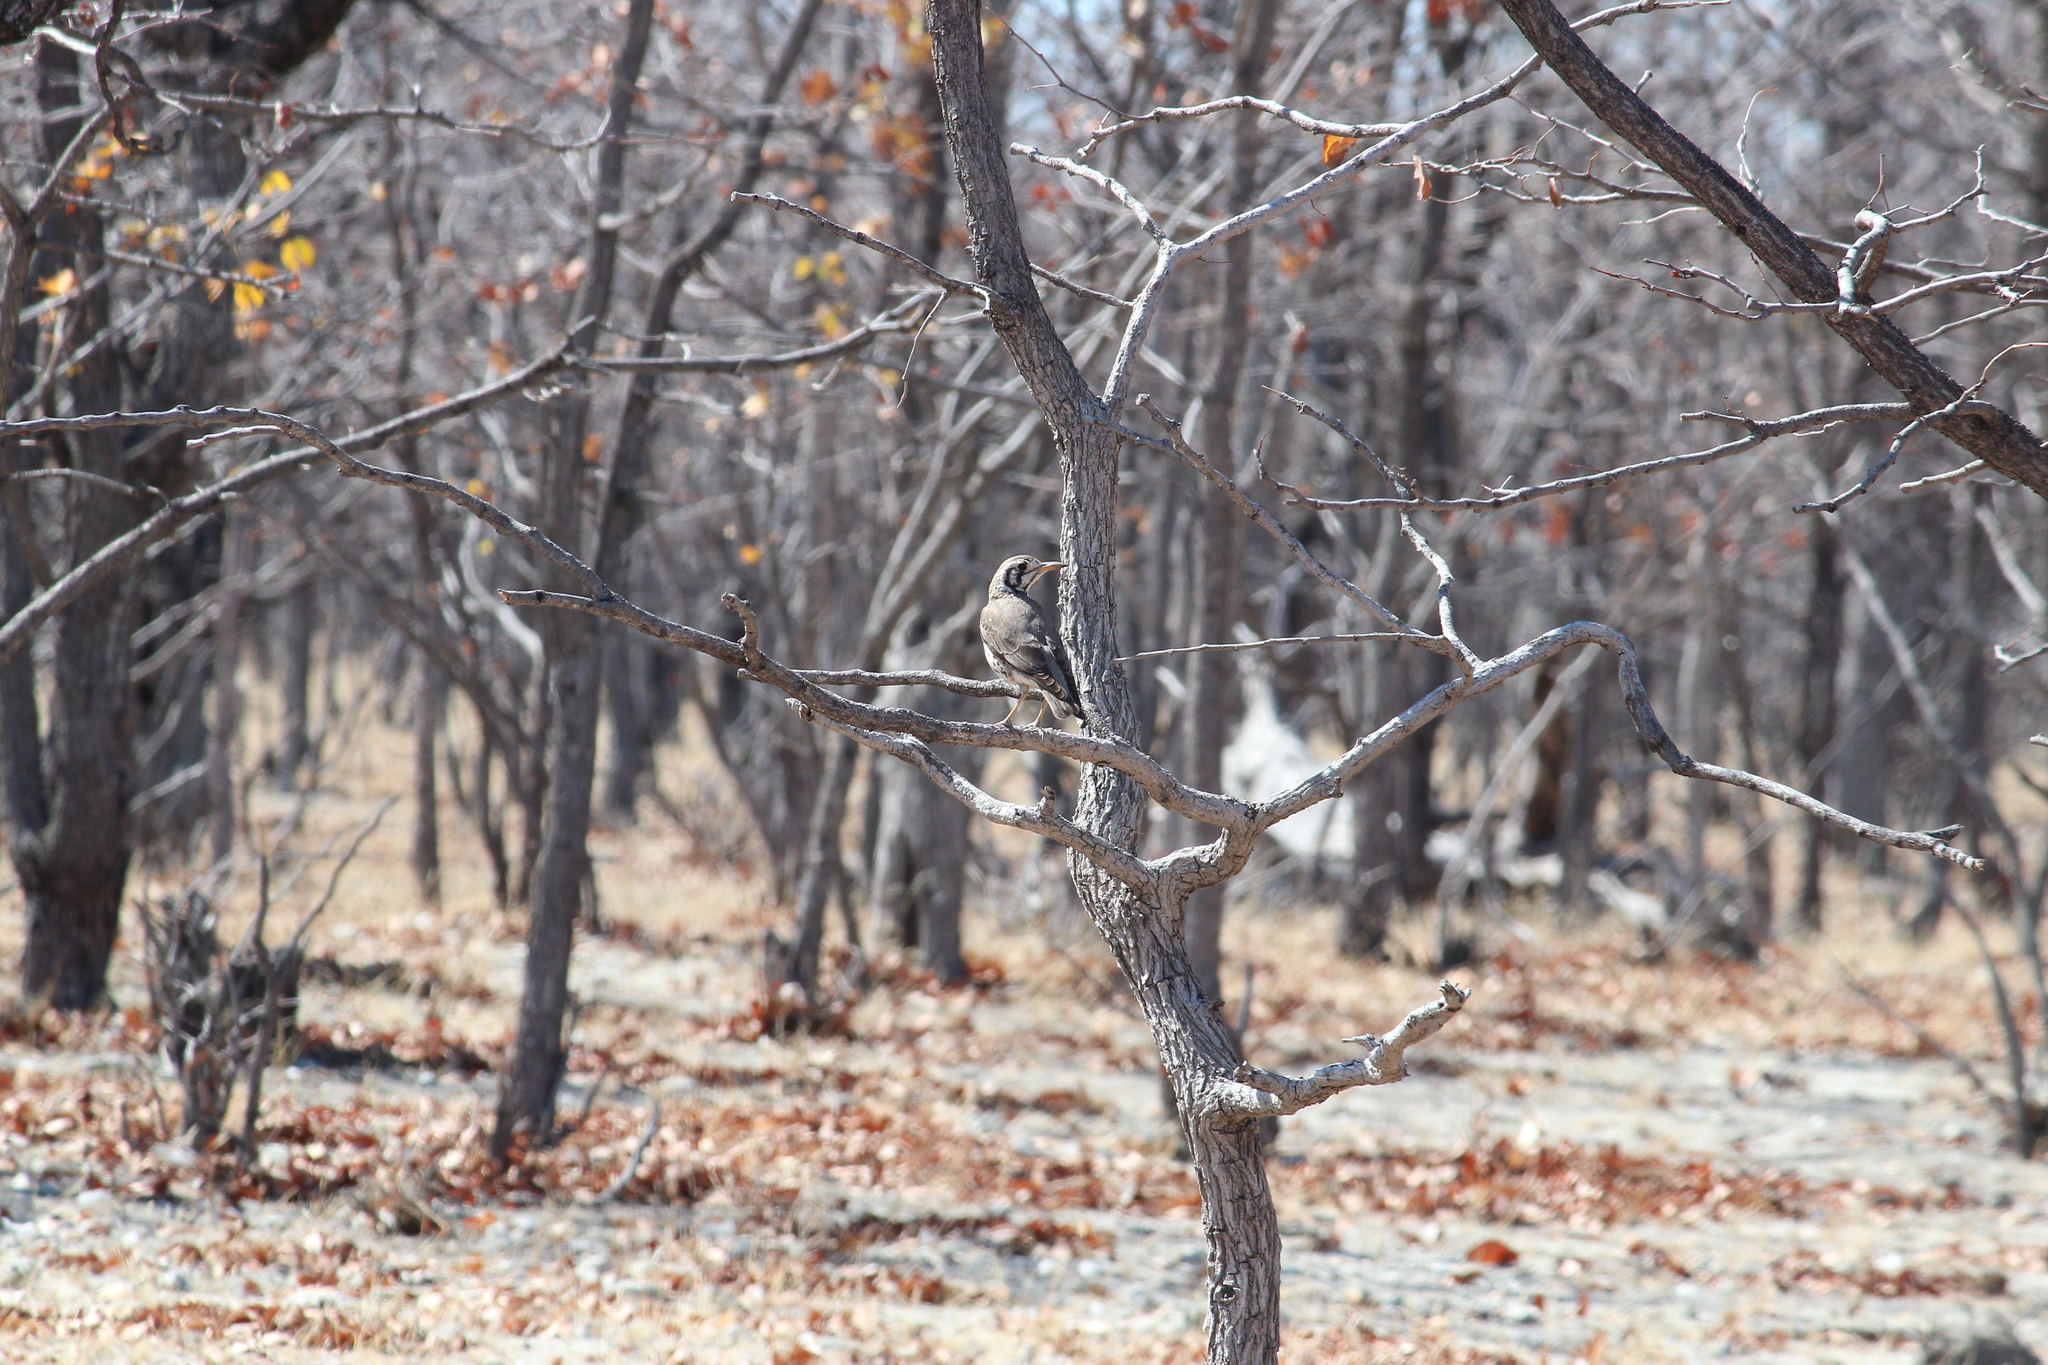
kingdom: Animalia
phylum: Chordata
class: Aves
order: Passeriformes
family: Turdidae
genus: Psophocichla
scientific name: Psophocichla litsitsirupa
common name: Groundscraper thrush
